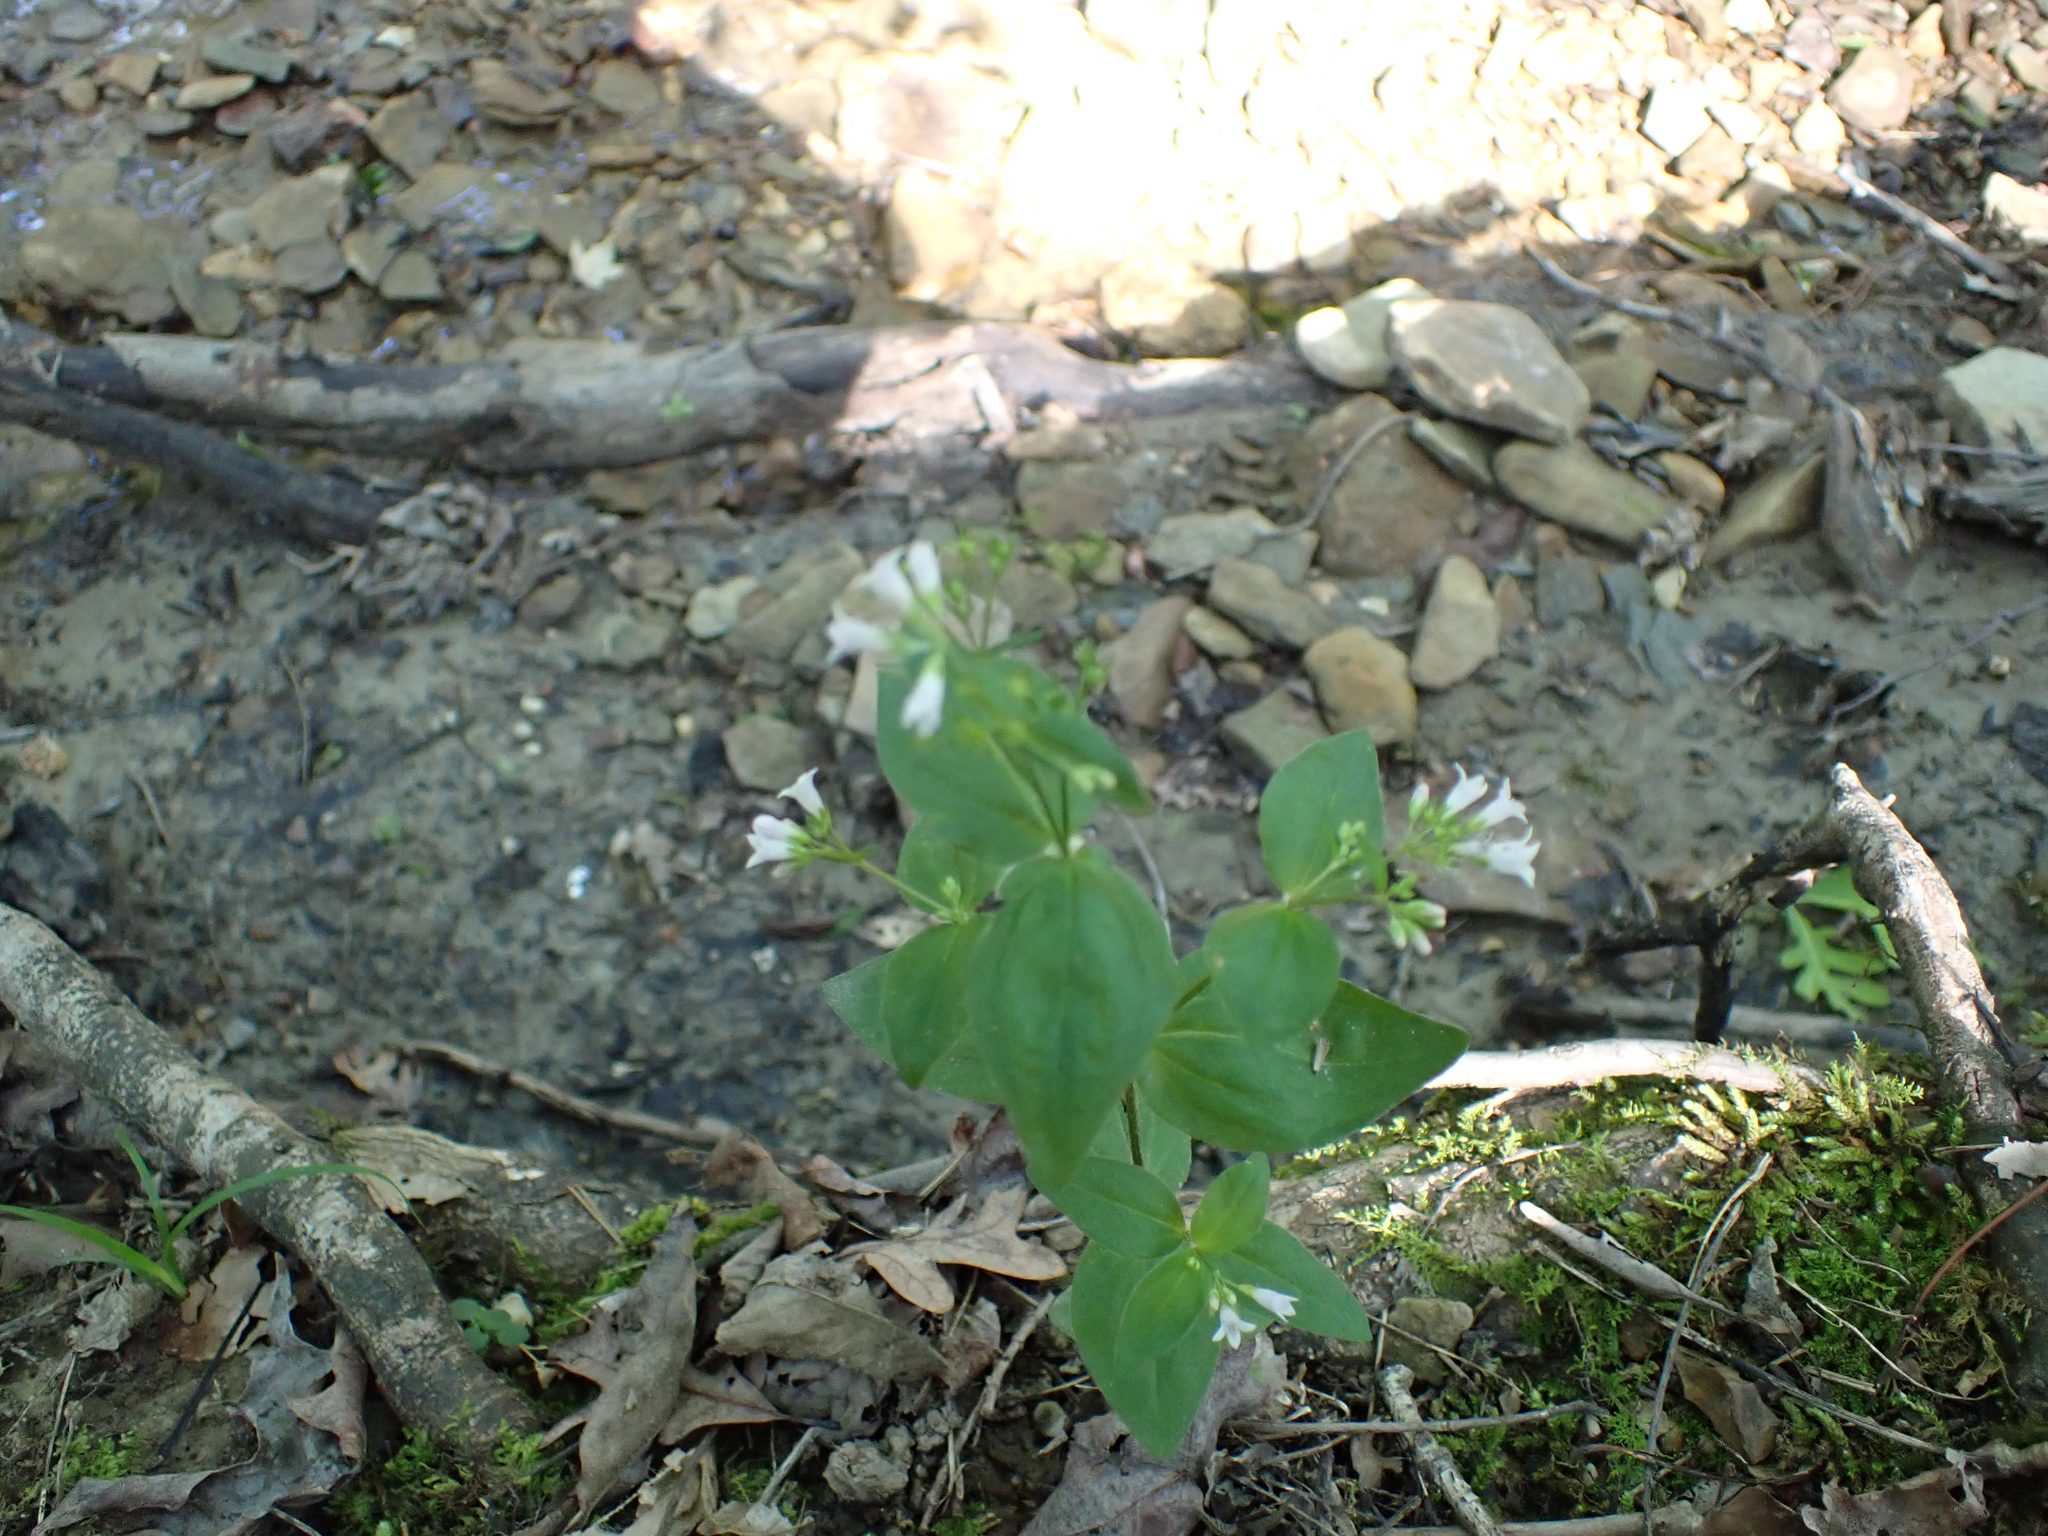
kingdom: Plantae
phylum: Tracheophyta
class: Magnoliopsida
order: Gentianales
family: Rubiaceae
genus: Houstonia
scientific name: Houstonia purpurea
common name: Summer bluet
